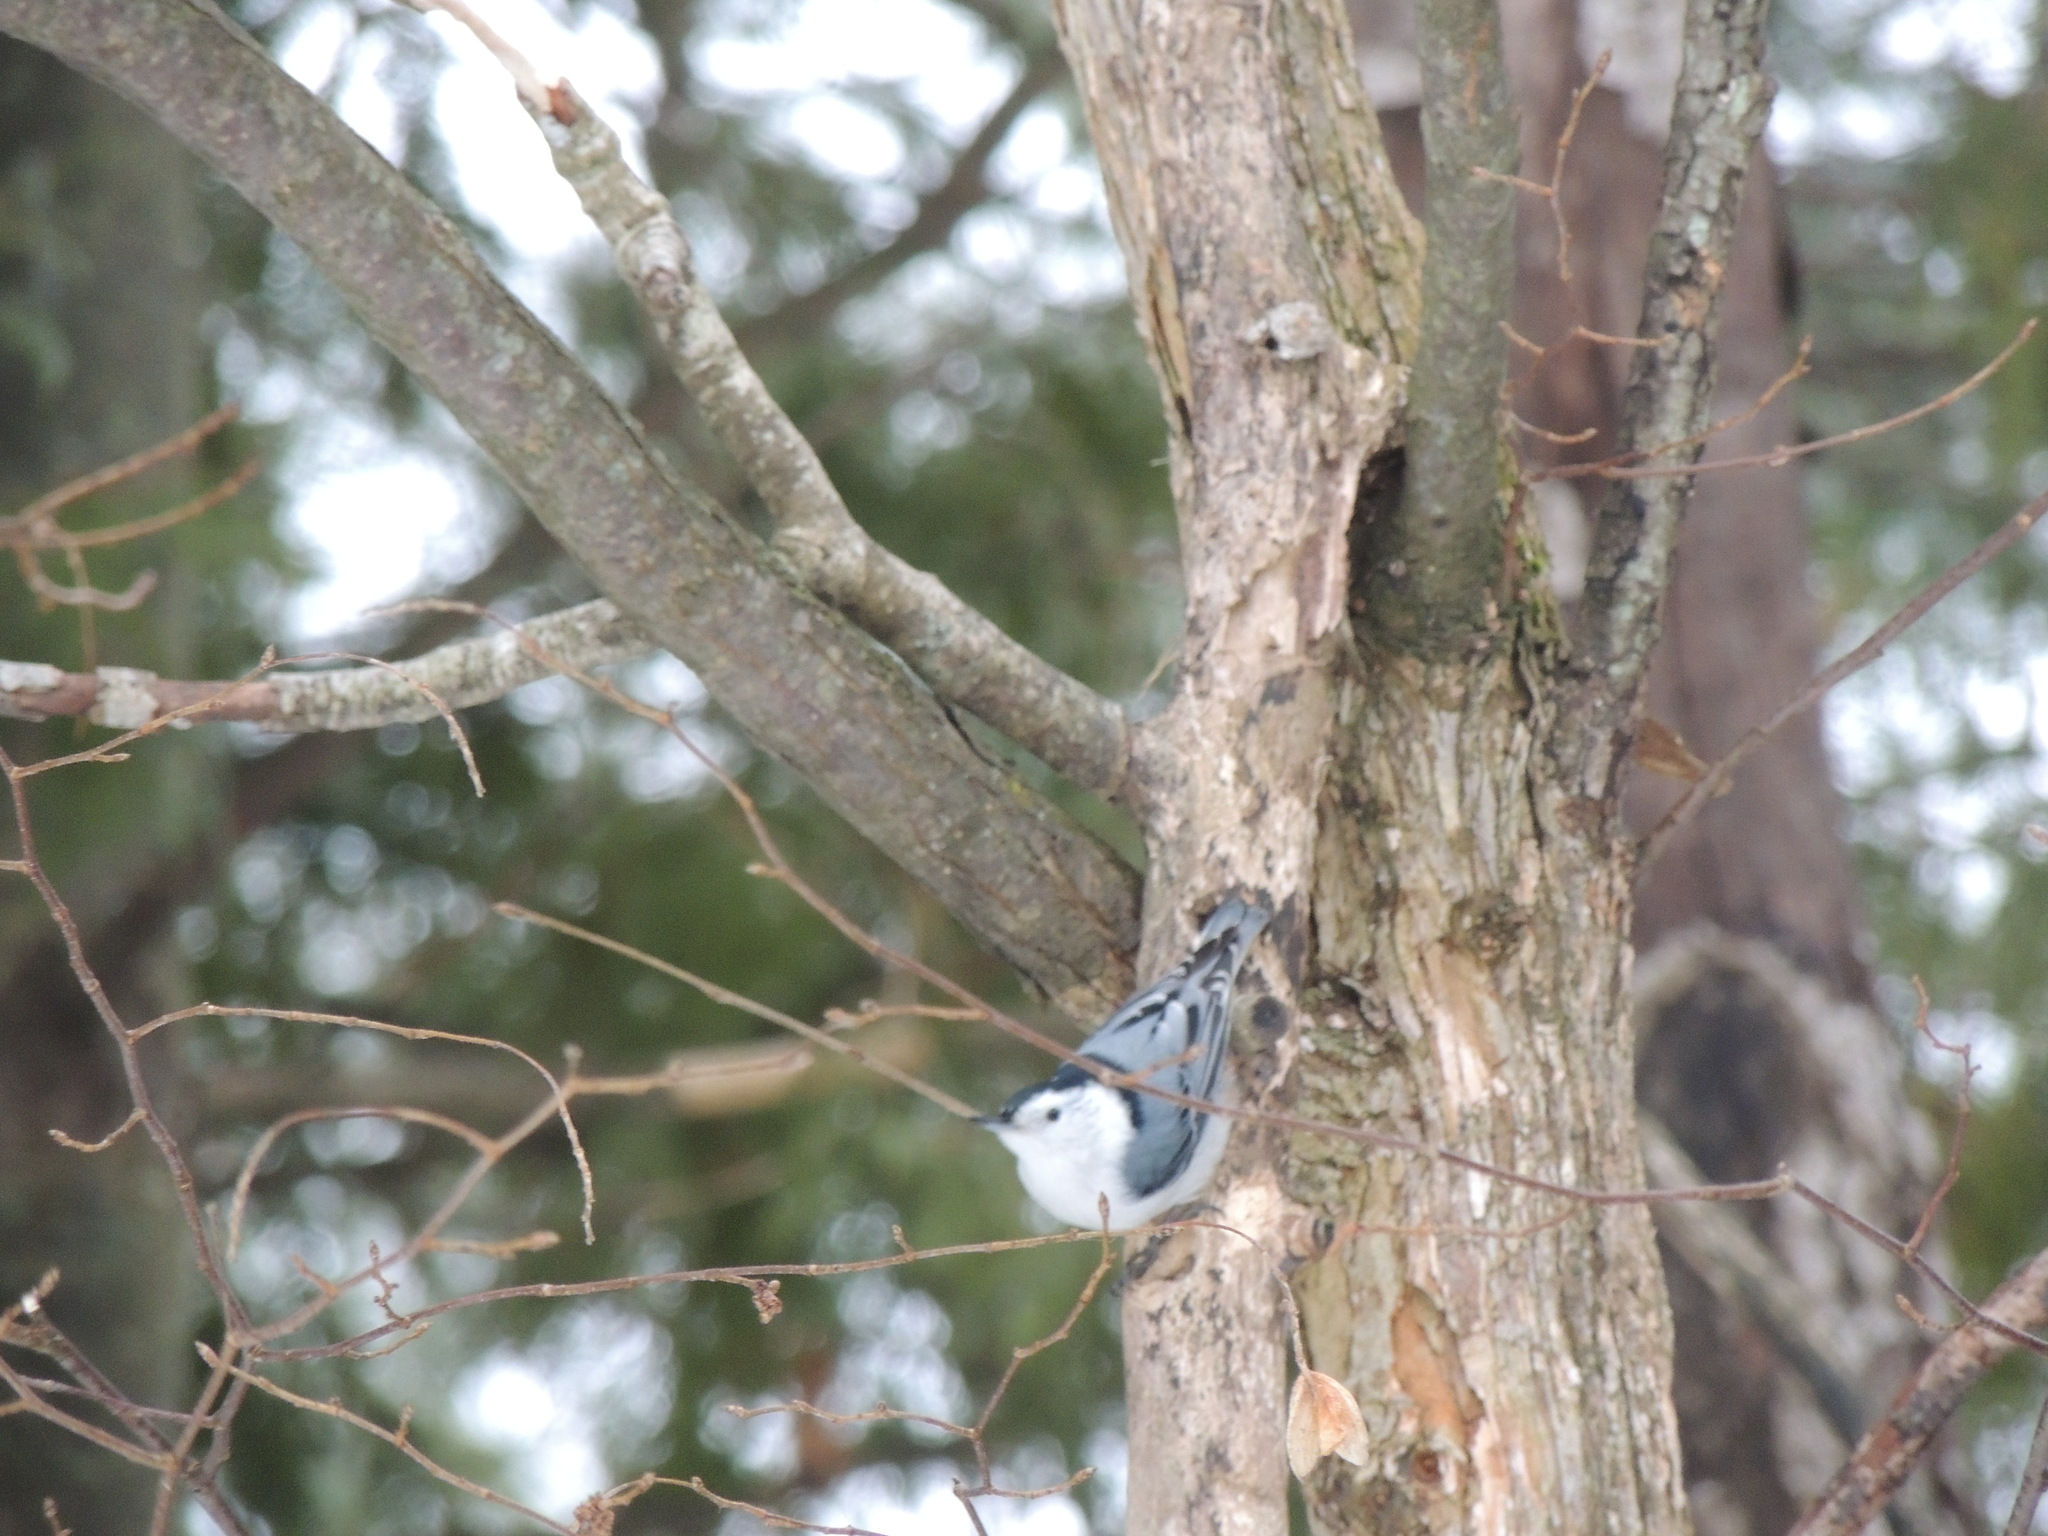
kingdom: Animalia
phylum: Chordata
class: Aves
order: Passeriformes
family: Sittidae
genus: Sitta
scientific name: Sitta carolinensis
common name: White-breasted nuthatch
